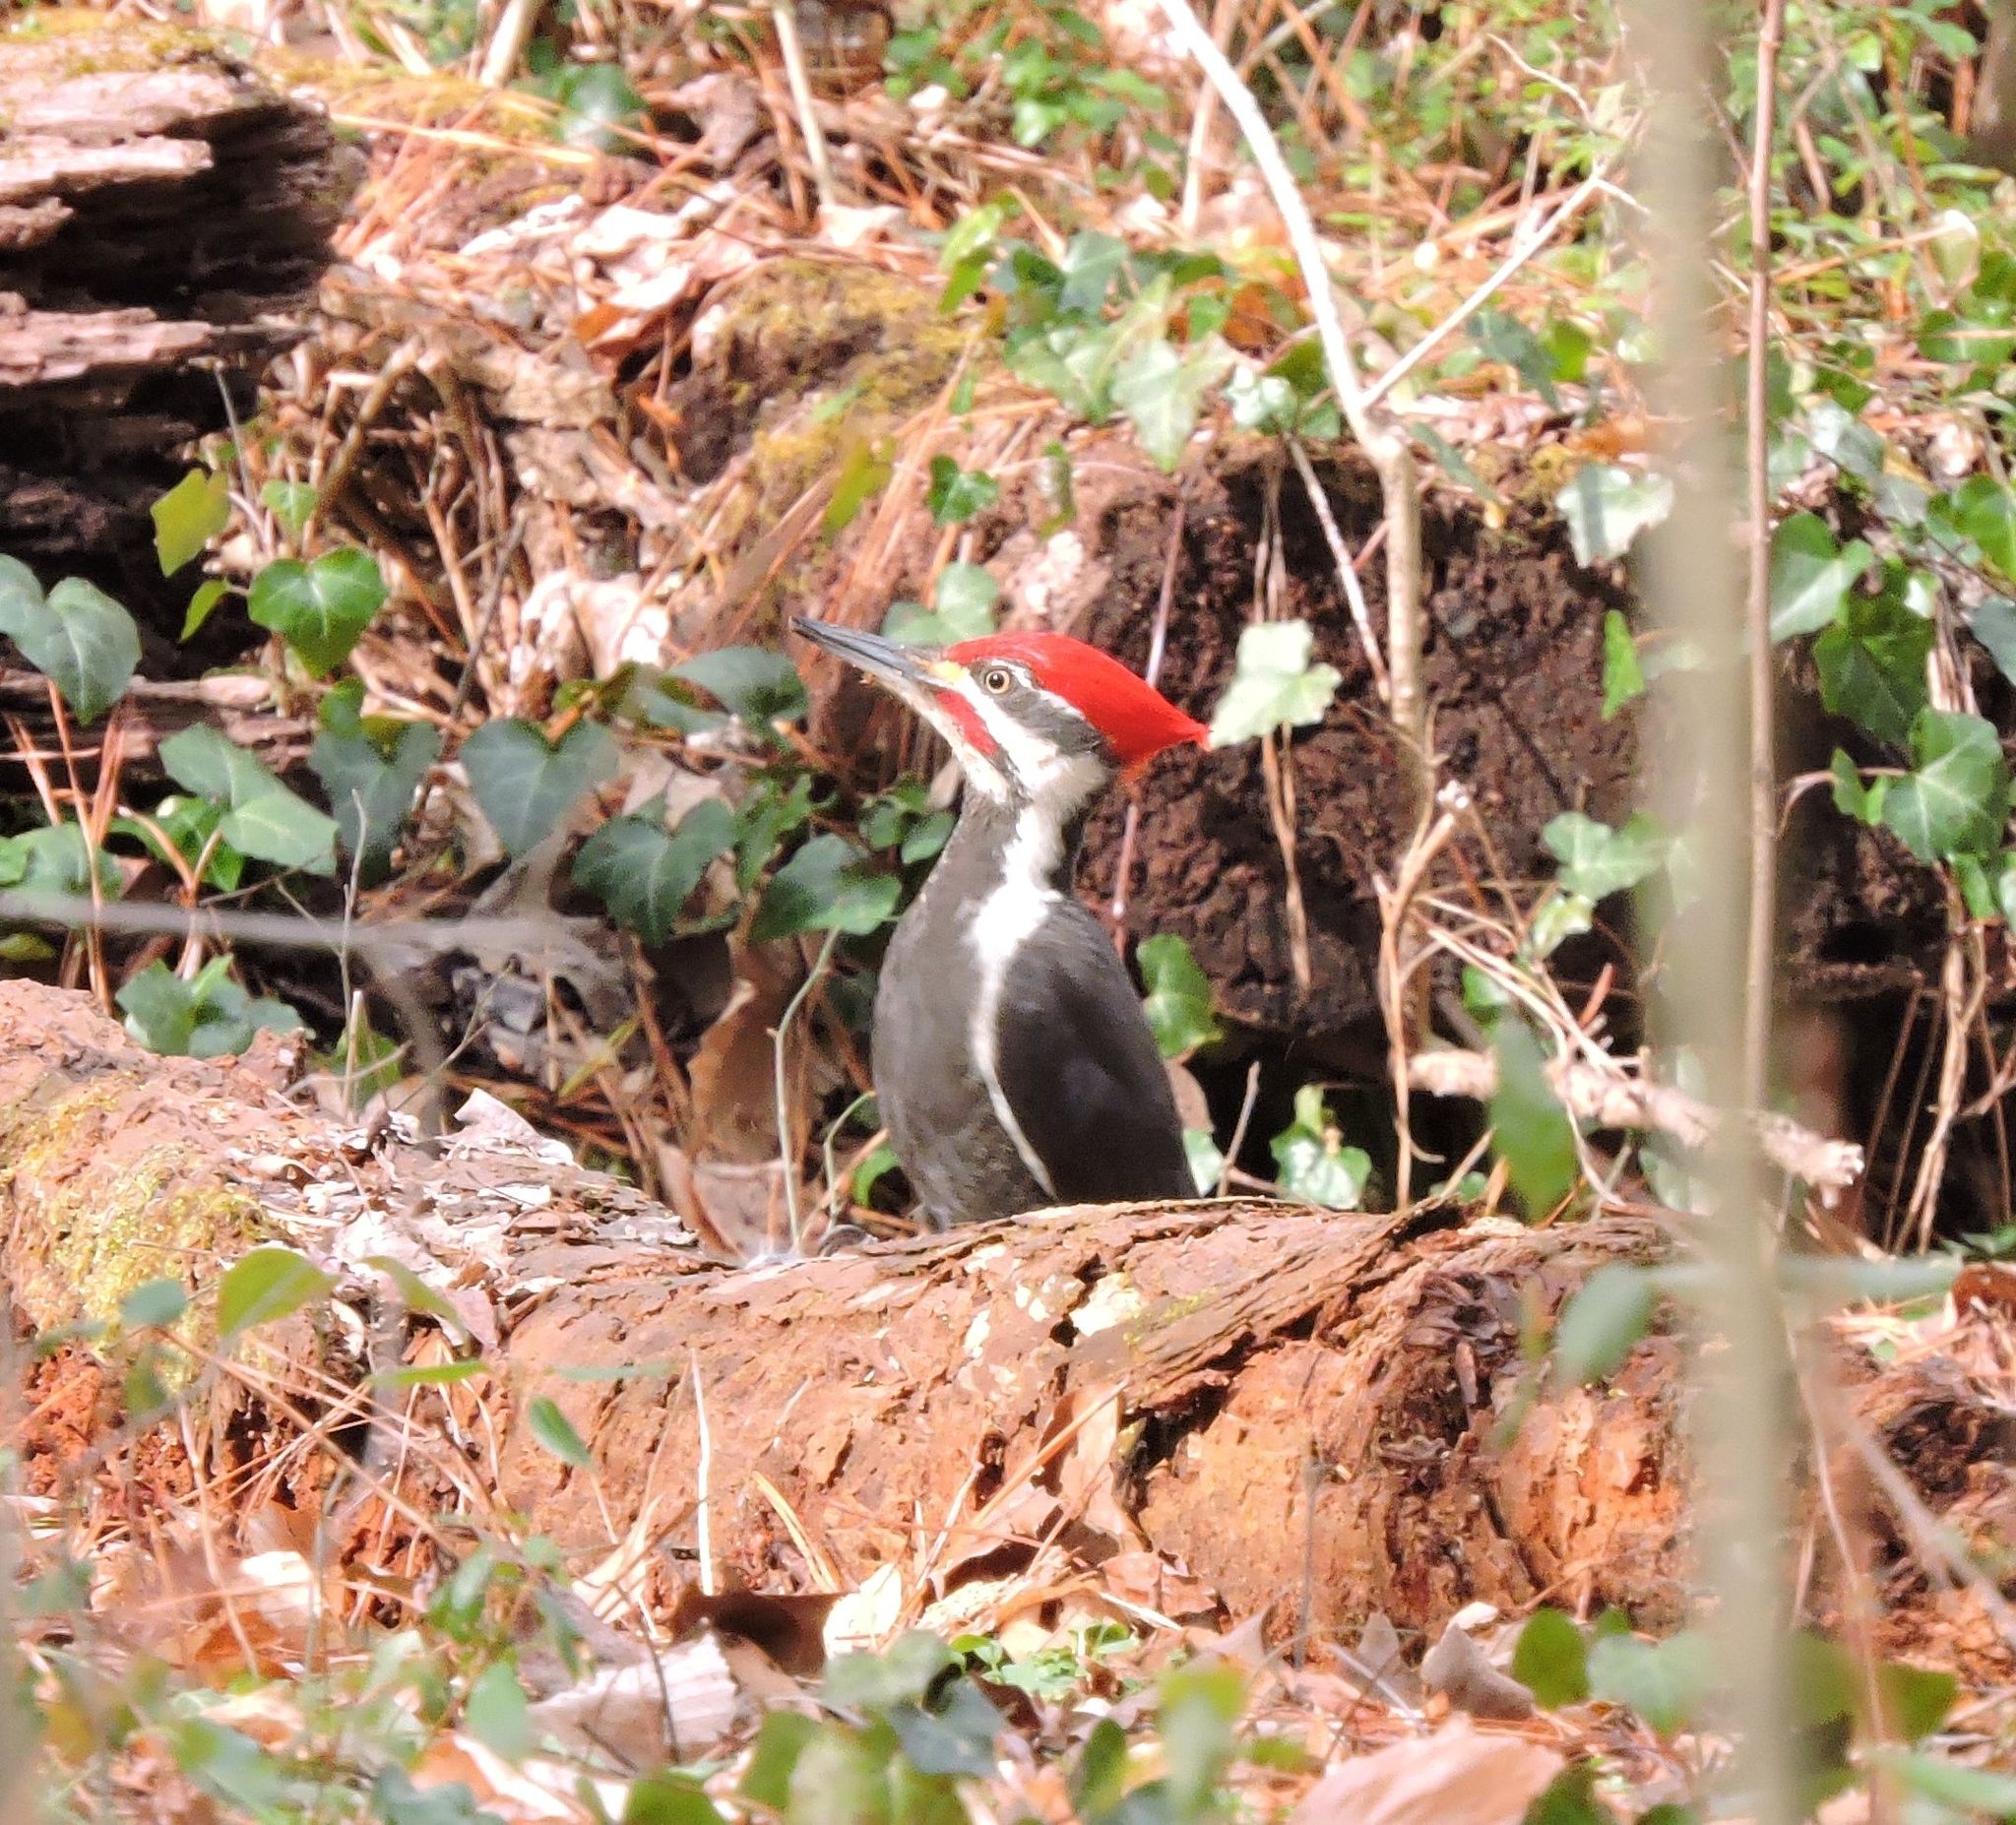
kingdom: Animalia
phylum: Chordata
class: Aves
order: Piciformes
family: Picidae
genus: Dryocopus
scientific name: Dryocopus pileatus
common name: Pileated woodpecker
